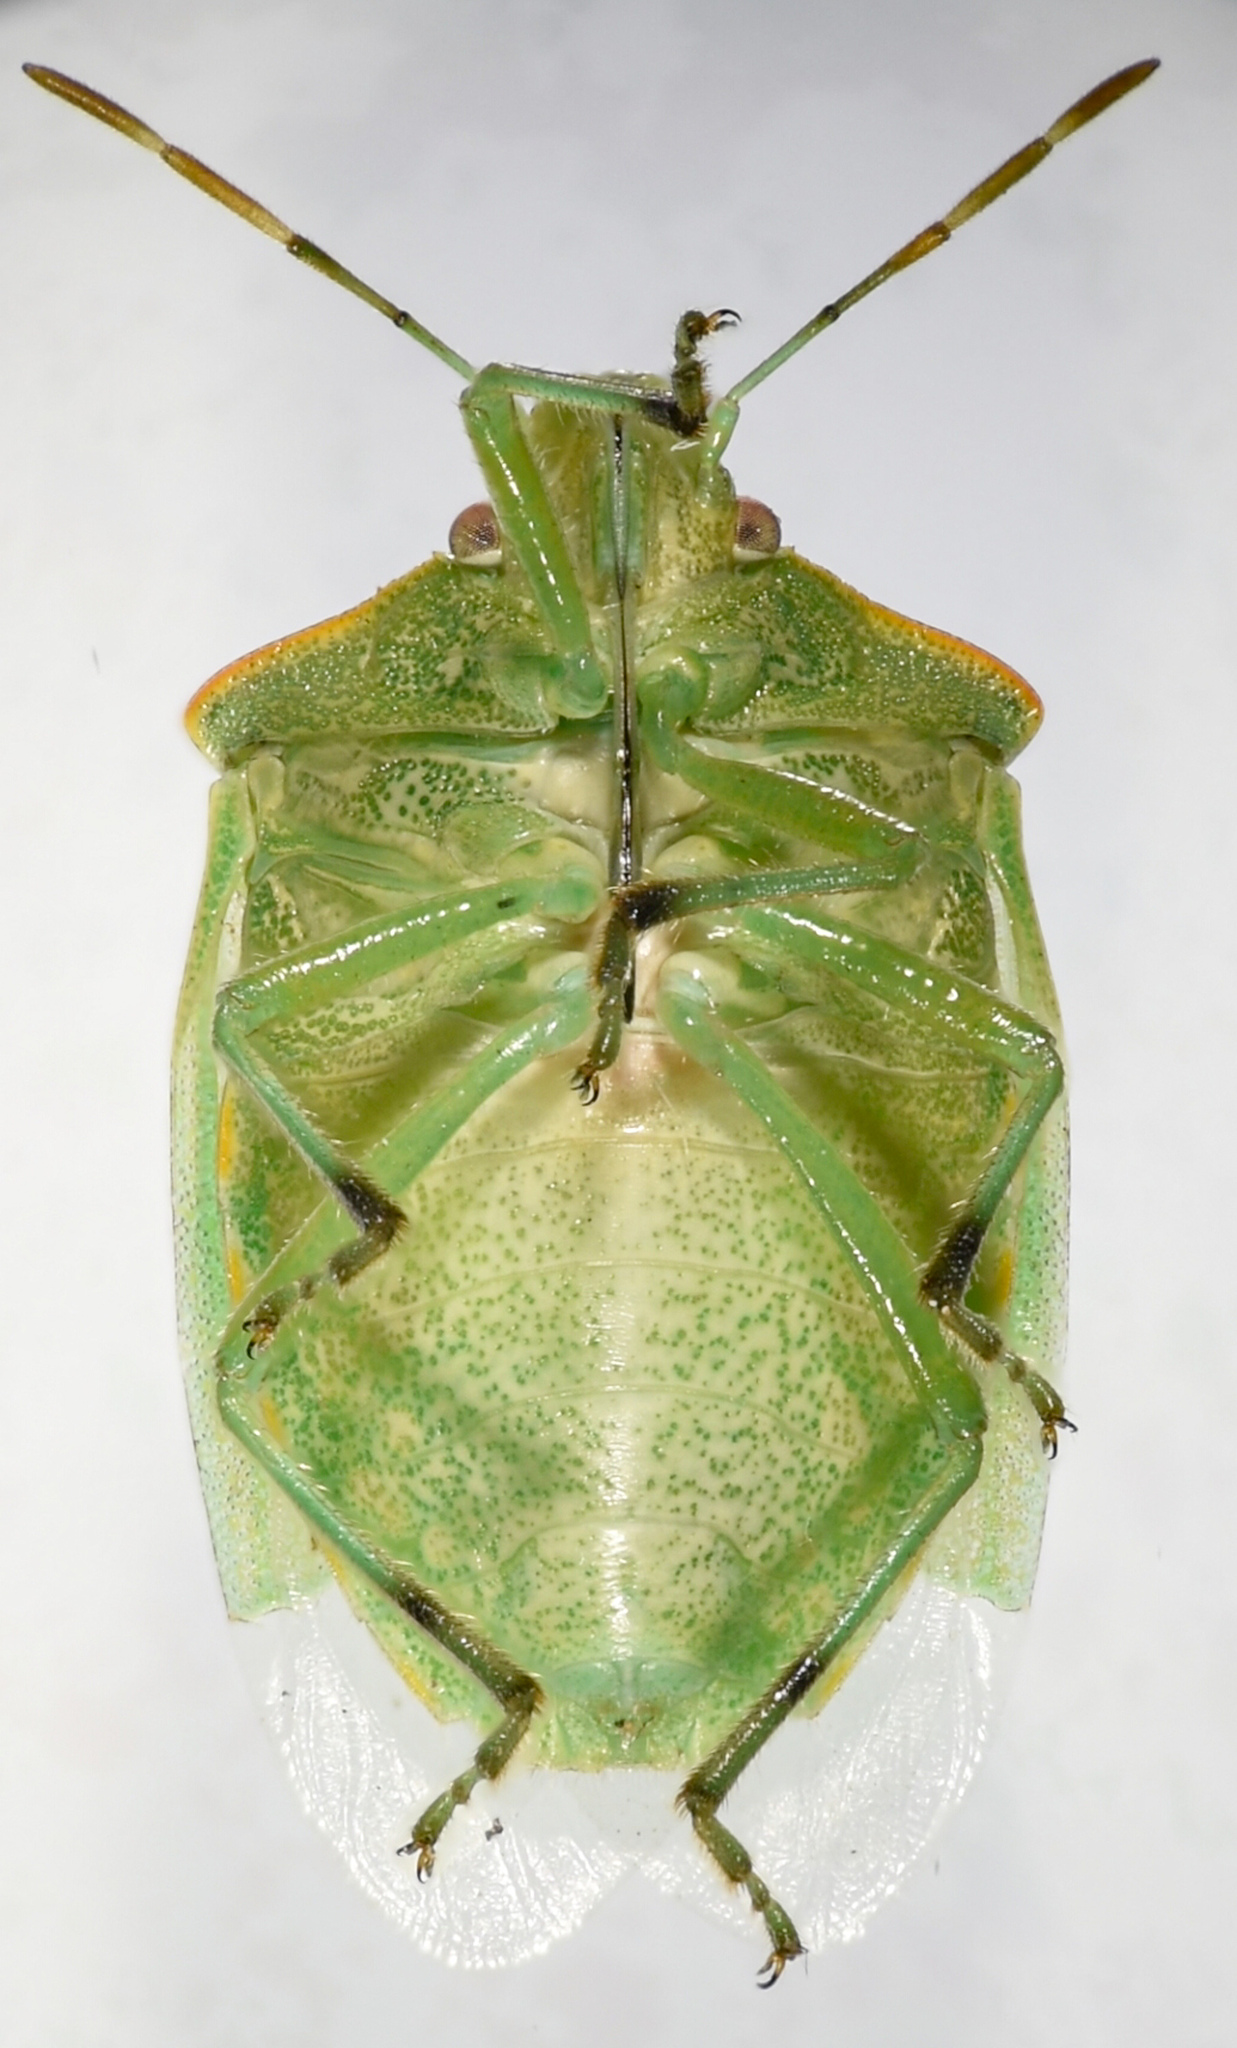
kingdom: Animalia
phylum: Arthropoda
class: Insecta
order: Hemiptera
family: Pentatomidae
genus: Thyanta
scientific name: Thyanta pallidovirens
